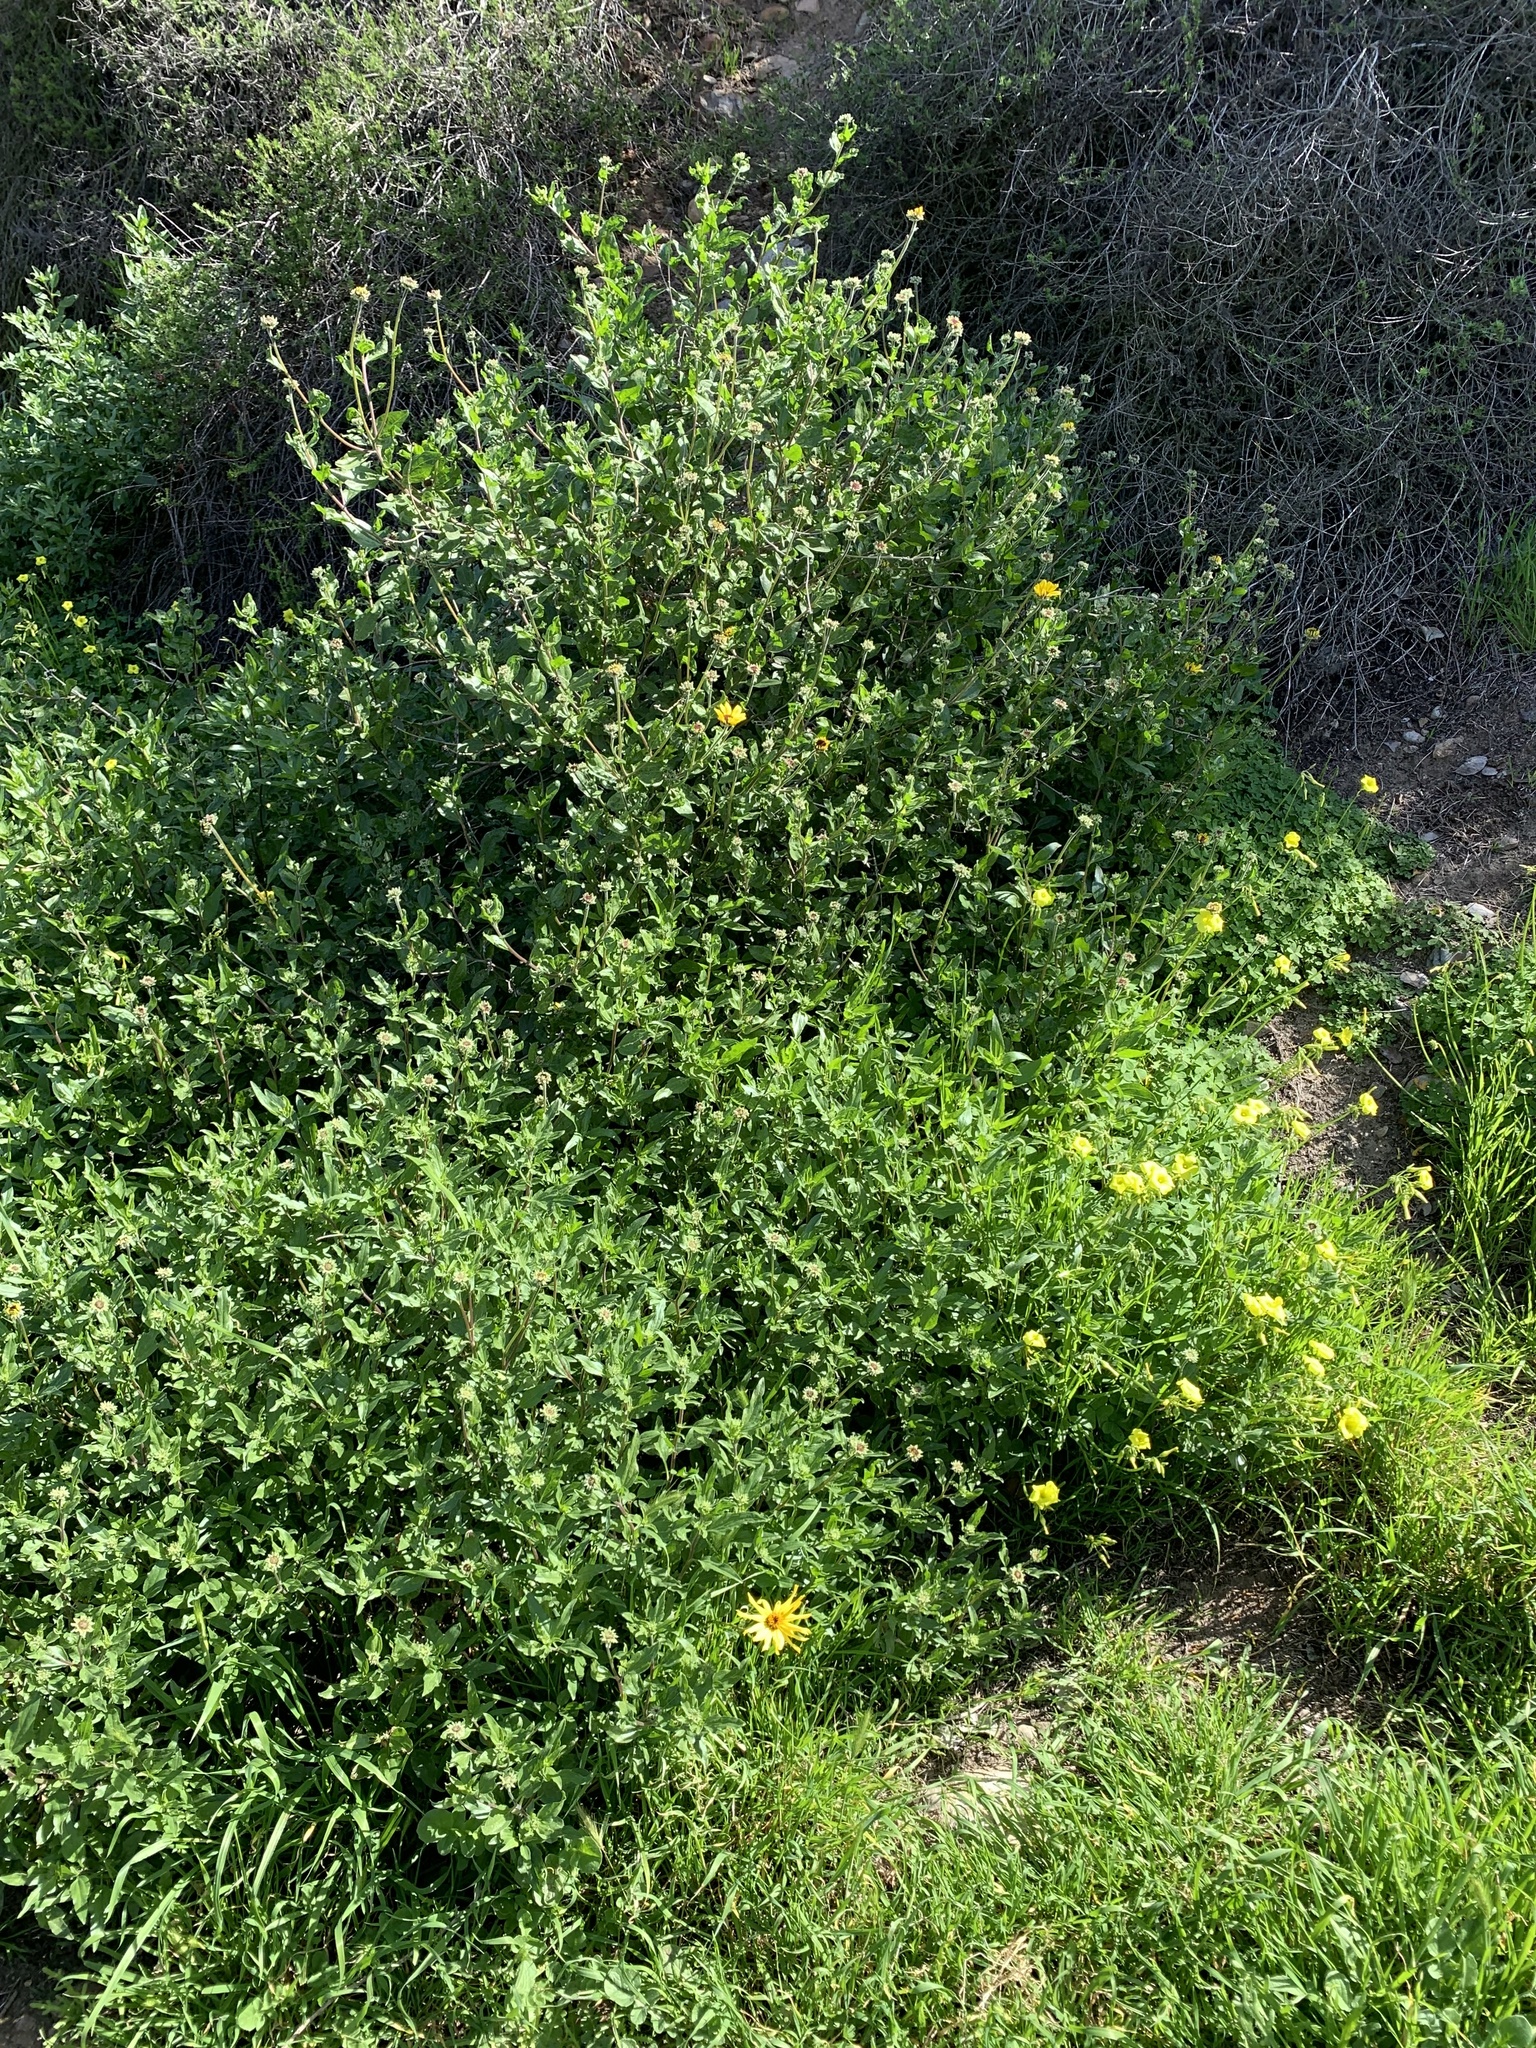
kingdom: Plantae
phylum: Tracheophyta
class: Magnoliopsida
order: Asterales
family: Asteraceae
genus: Encelia
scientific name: Encelia californica
